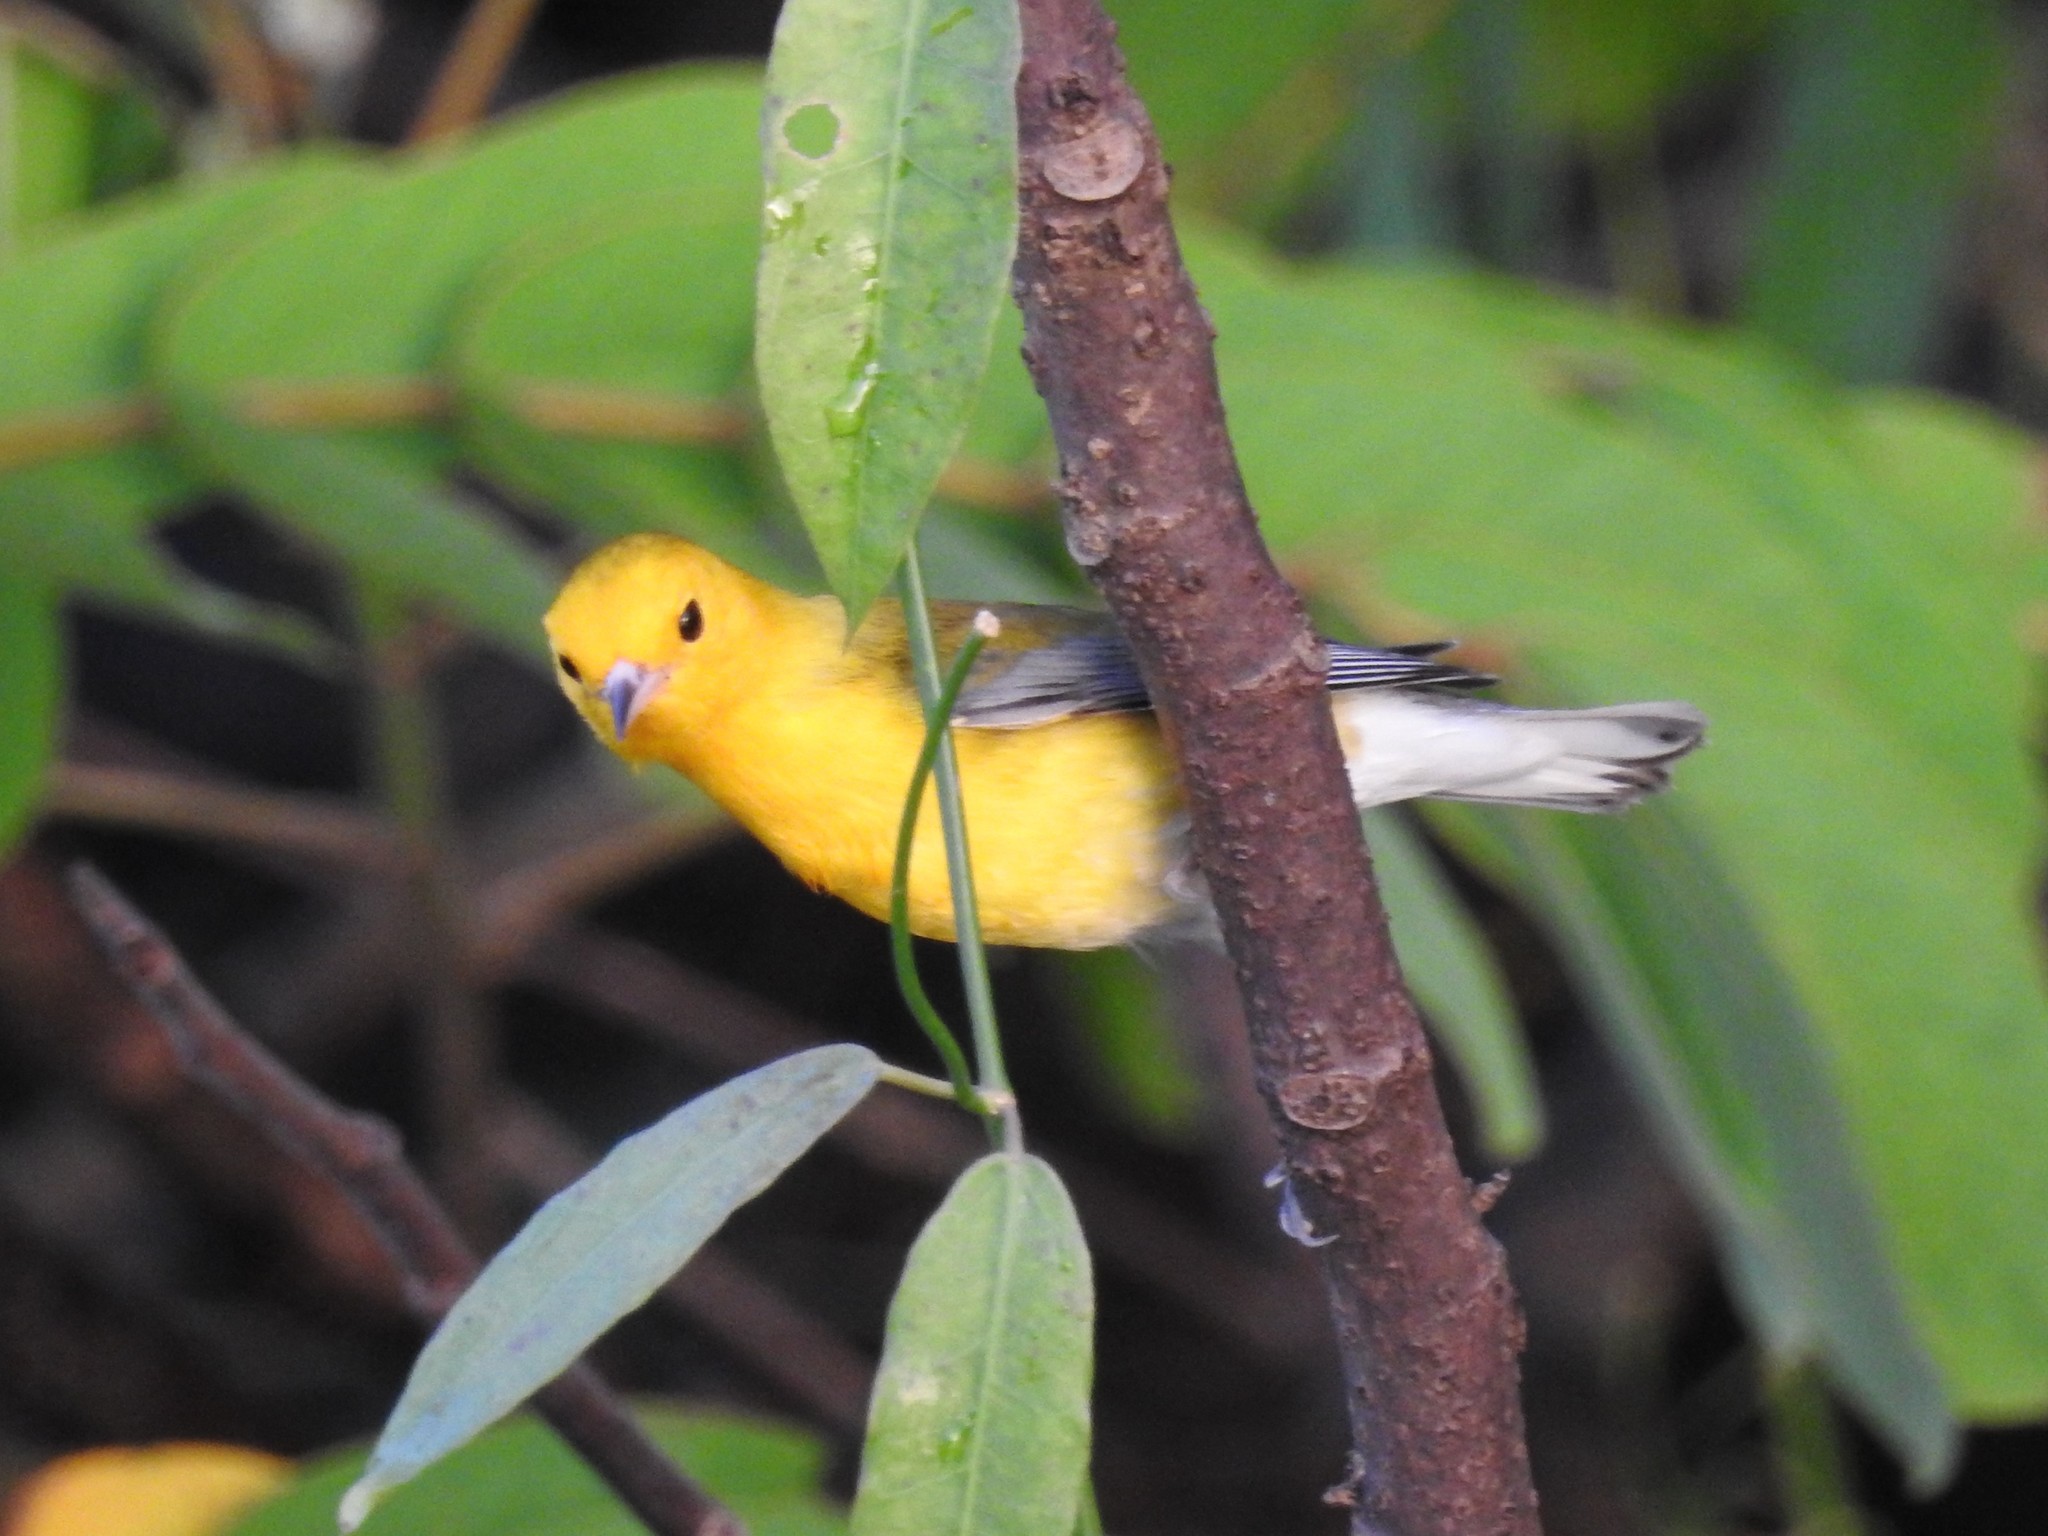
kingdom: Animalia
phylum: Chordata
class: Aves
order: Passeriformes
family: Parulidae
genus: Protonotaria
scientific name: Protonotaria citrea
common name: Prothonotary warbler
